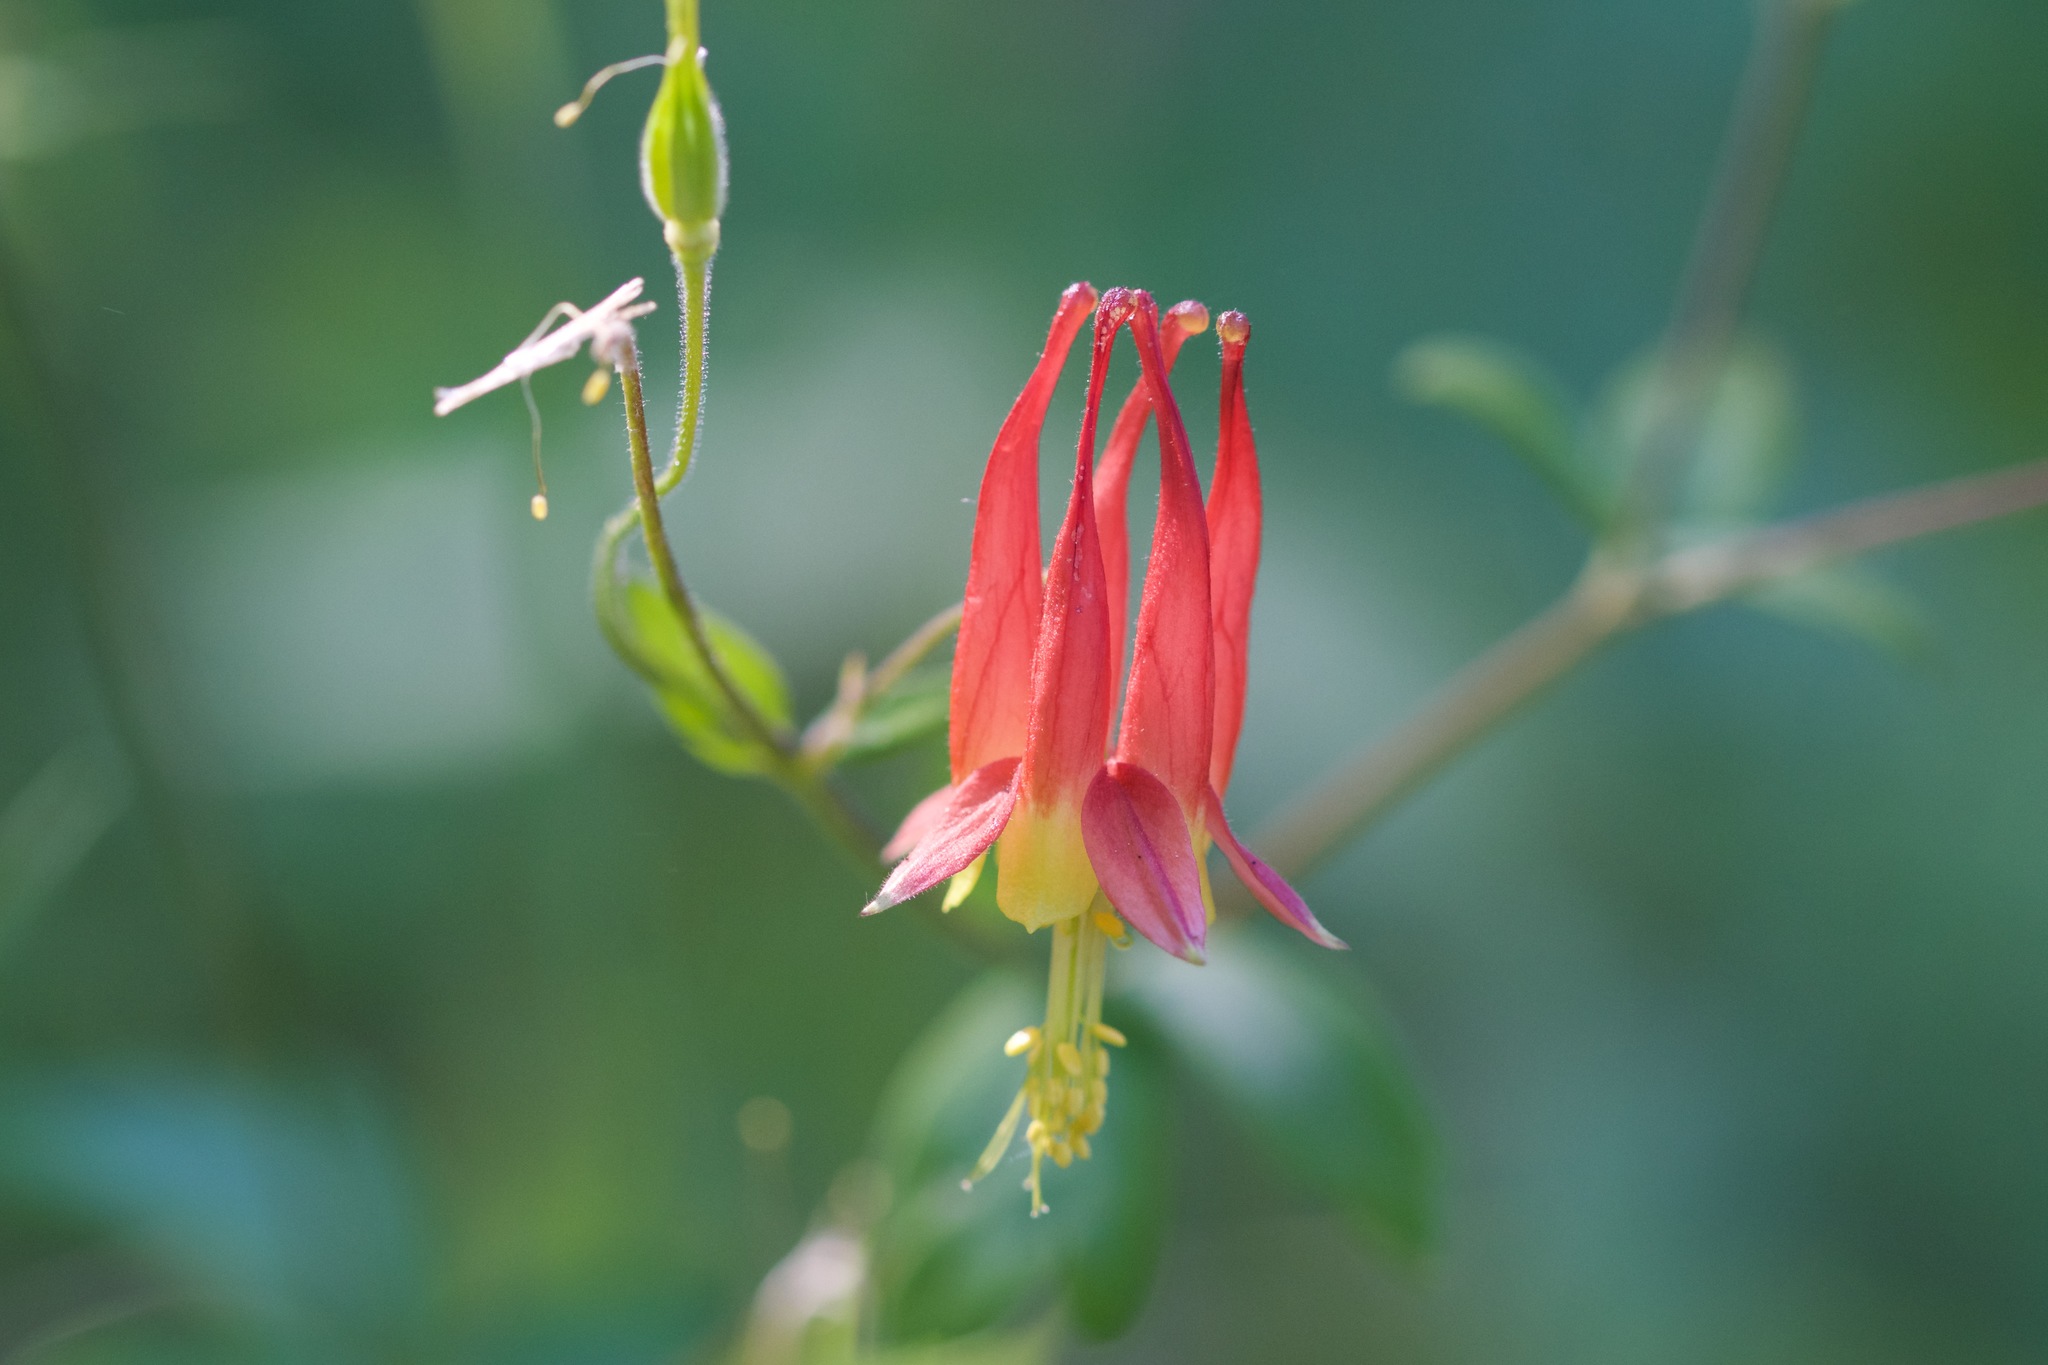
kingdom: Plantae
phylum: Tracheophyta
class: Magnoliopsida
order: Ranunculales
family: Ranunculaceae
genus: Aquilegia
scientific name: Aquilegia canadensis
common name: American columbine
